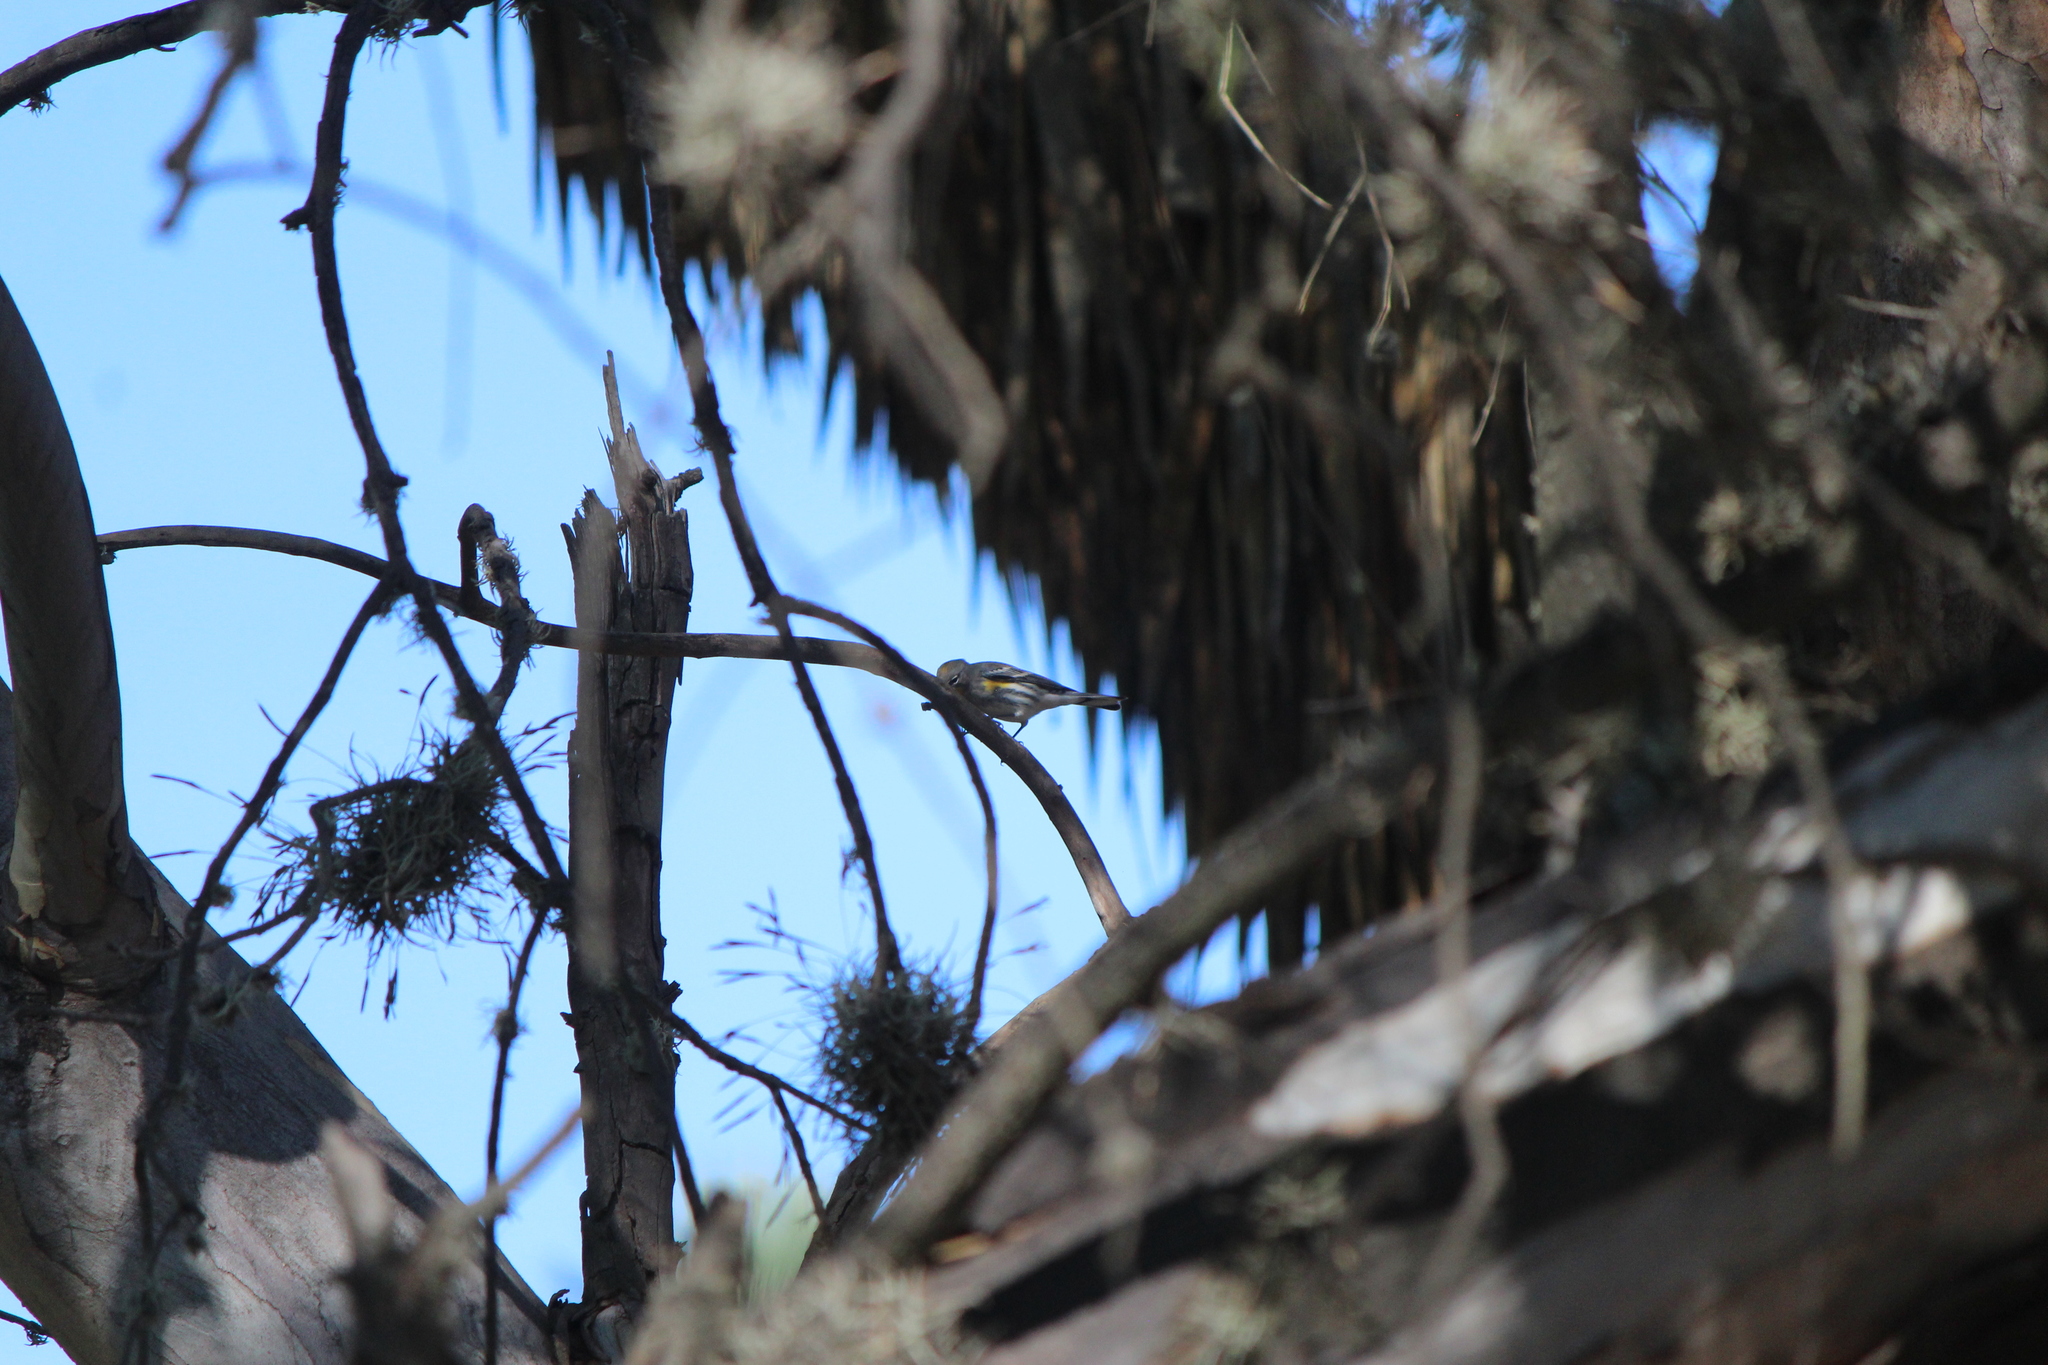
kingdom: Animalia
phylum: Chordata
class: Aves
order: Passeriformes
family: Parulidae
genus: Setophaga
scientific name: Setophaga auduboni
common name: Audubon's warbler
